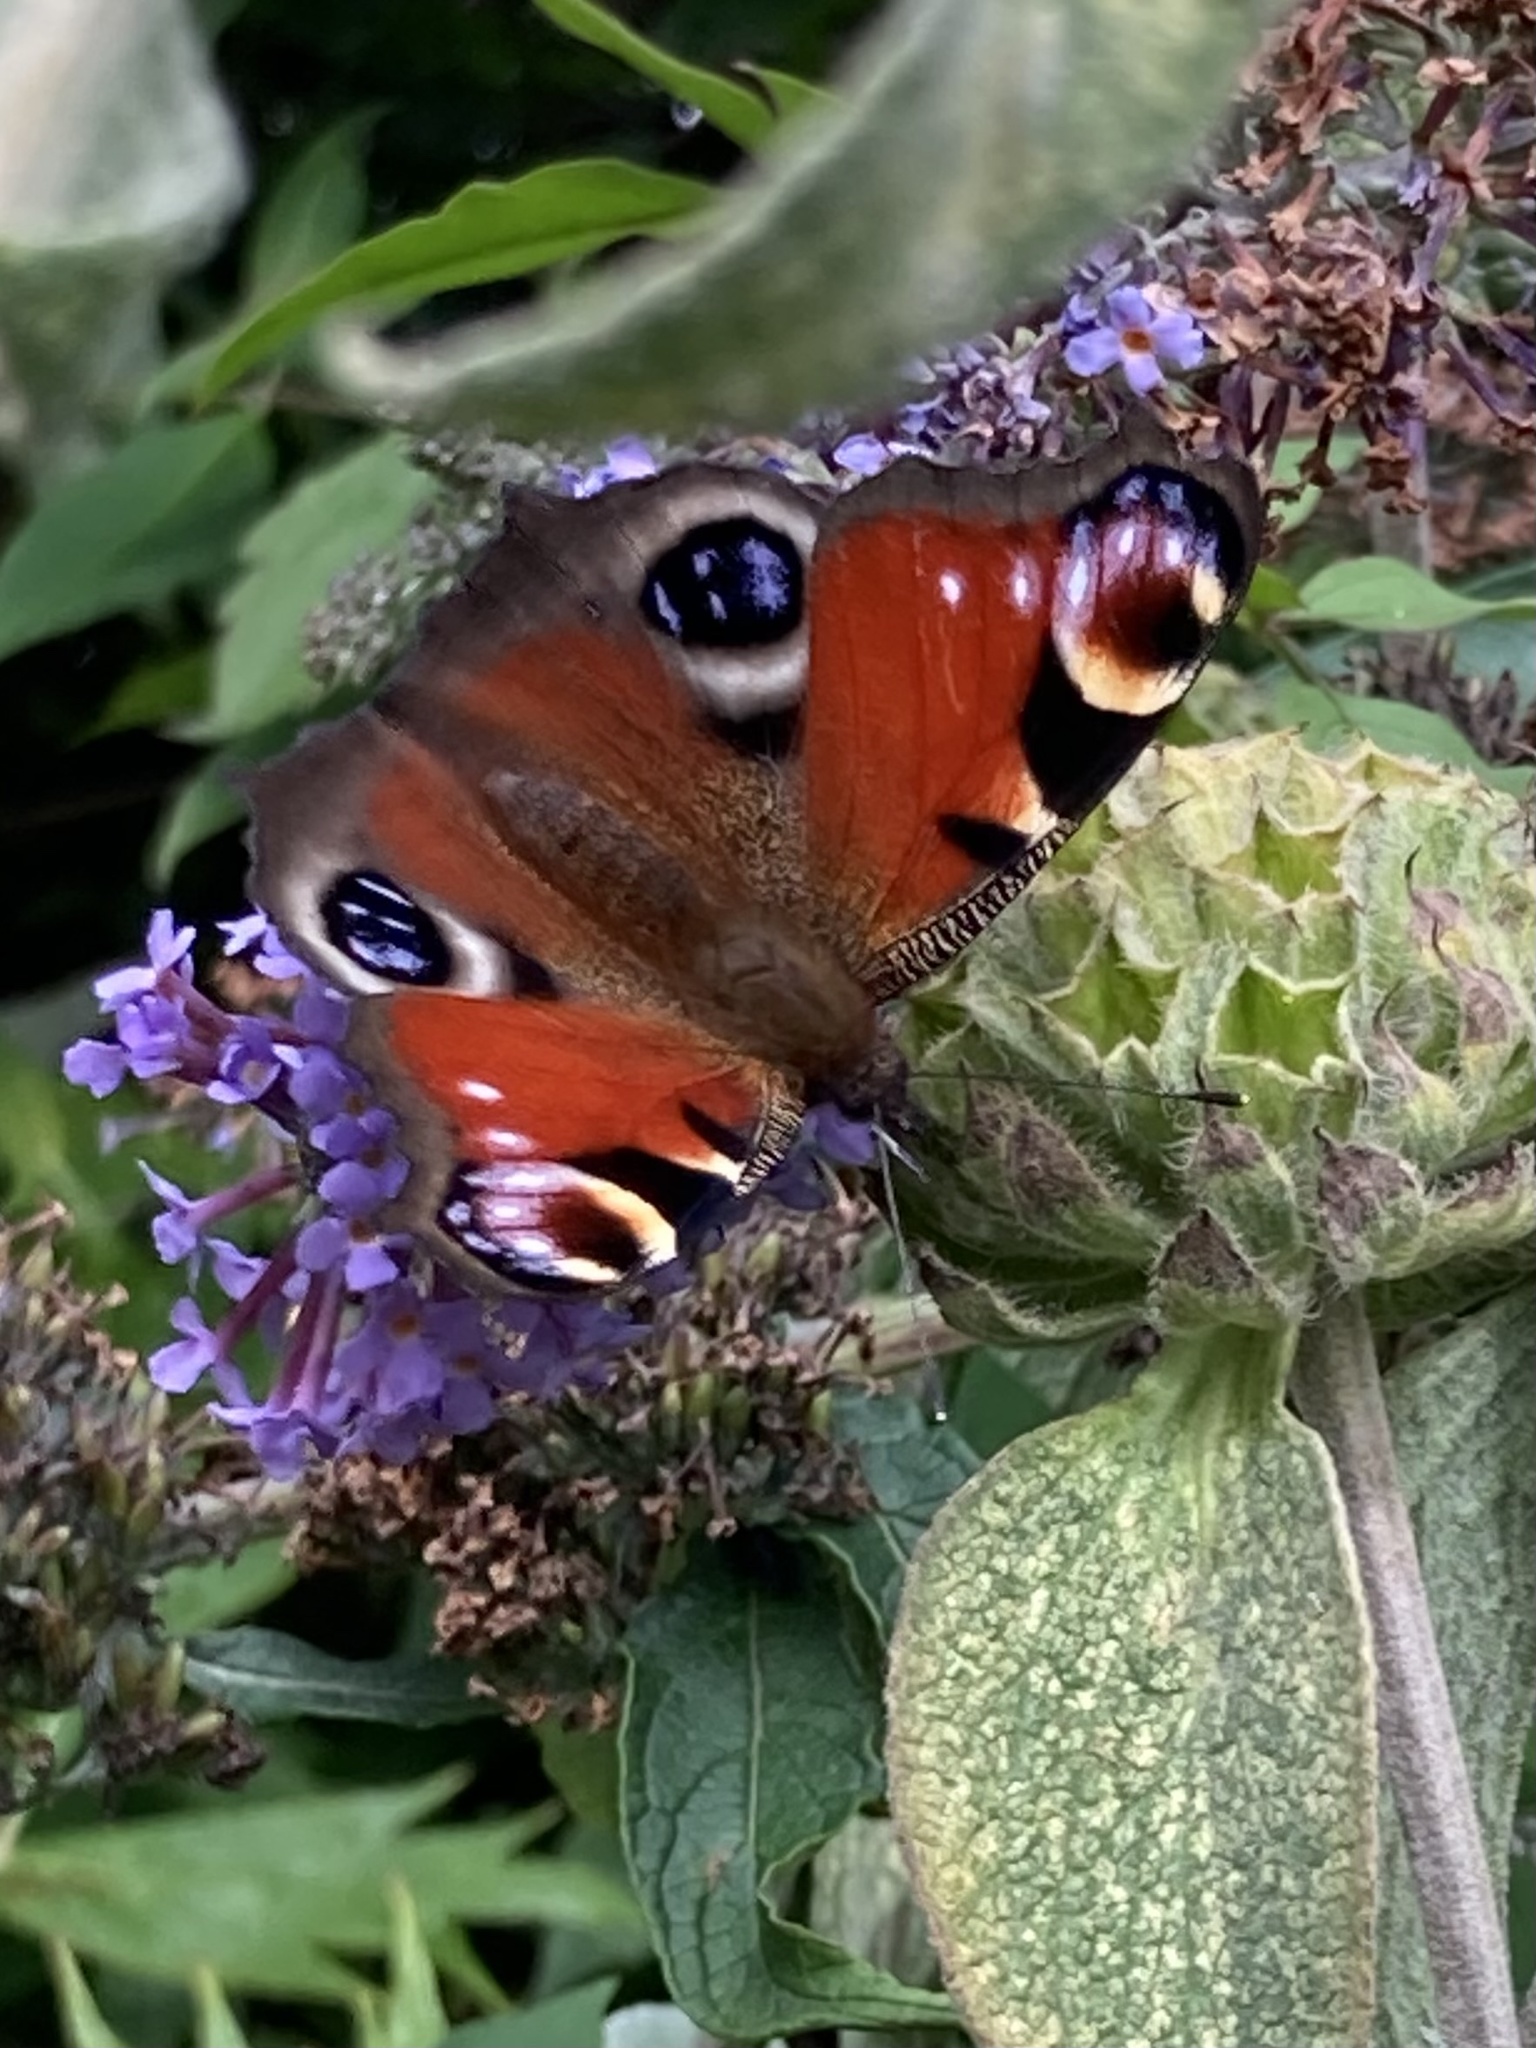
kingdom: Animalia
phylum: Arthropoda
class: Insecta
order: Lepidoptera
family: Nymphalidae
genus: Aglais
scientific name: Aglais io
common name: Peacock
